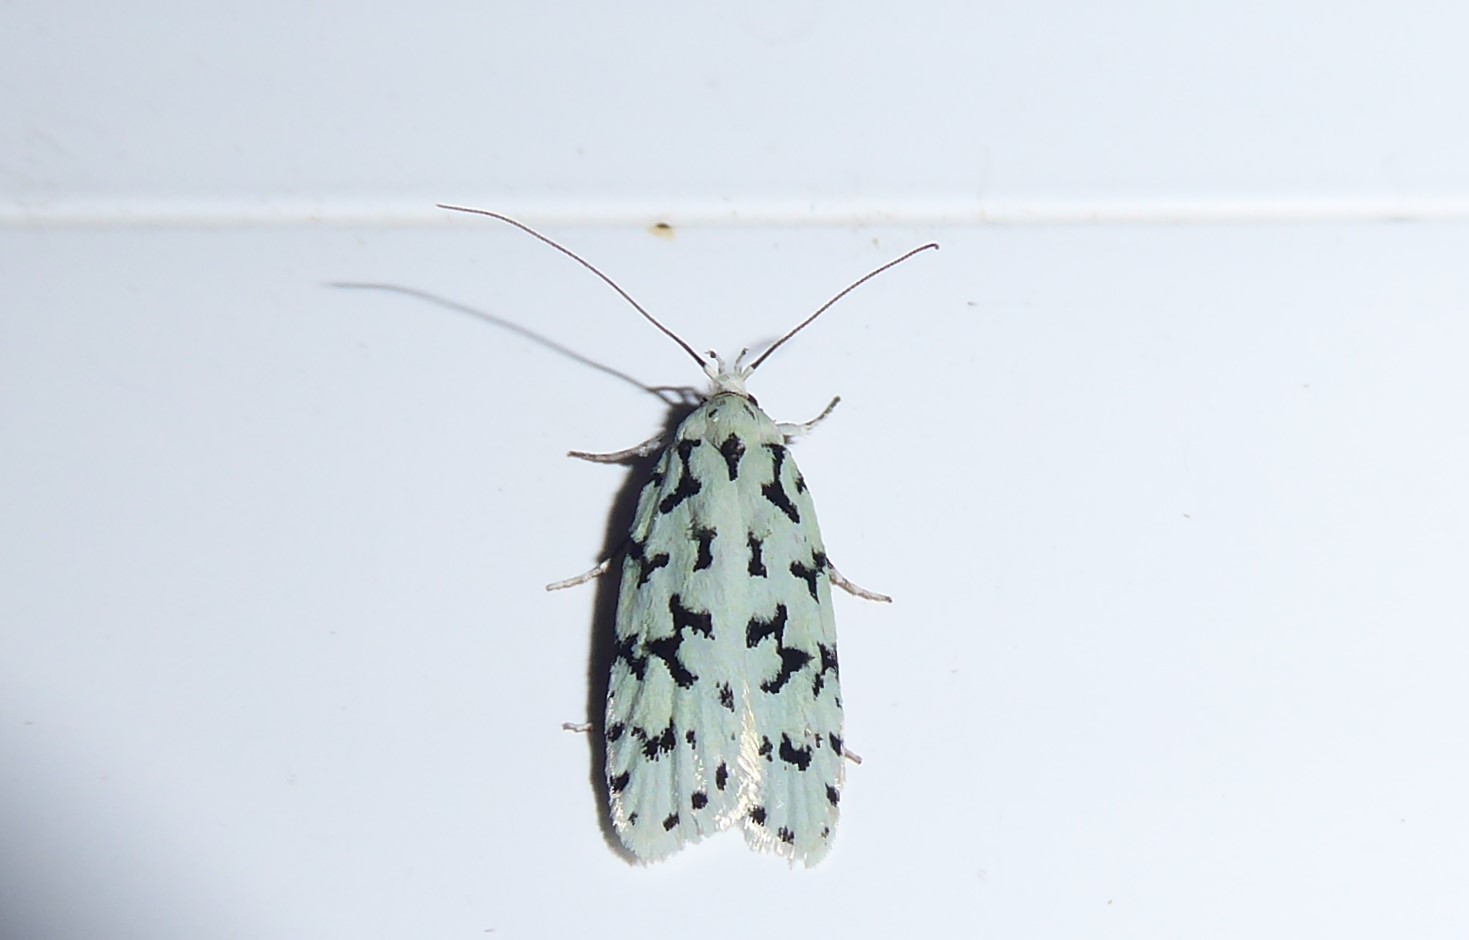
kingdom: Animalia
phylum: Arthropoda
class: Insecta
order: Lepidoptera
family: Oecophoridae
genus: Izatha
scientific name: Izatha huttoni
